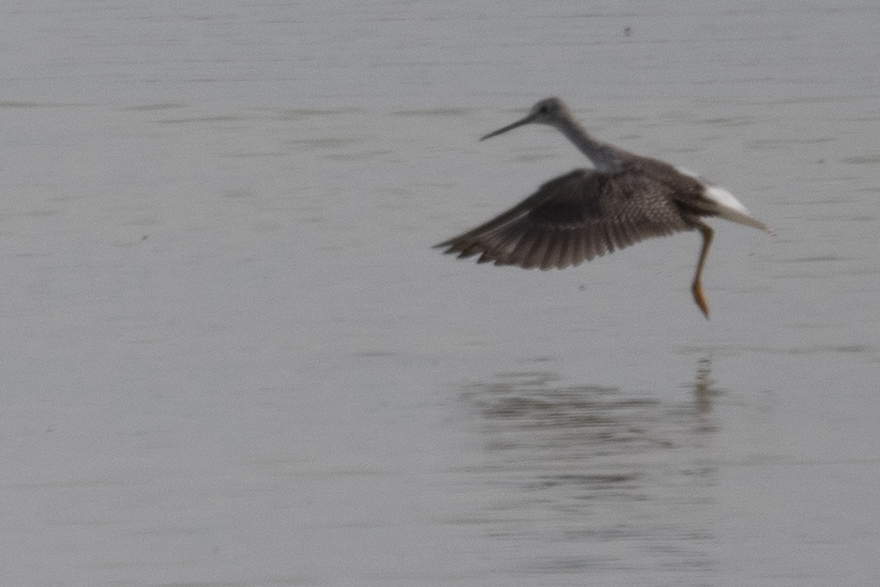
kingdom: Animalia
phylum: Chordata
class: Aves
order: Charadriiformes
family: Scolopacidae
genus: Tringa
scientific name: Tringa melanoleuca
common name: Greater yellowlegs
